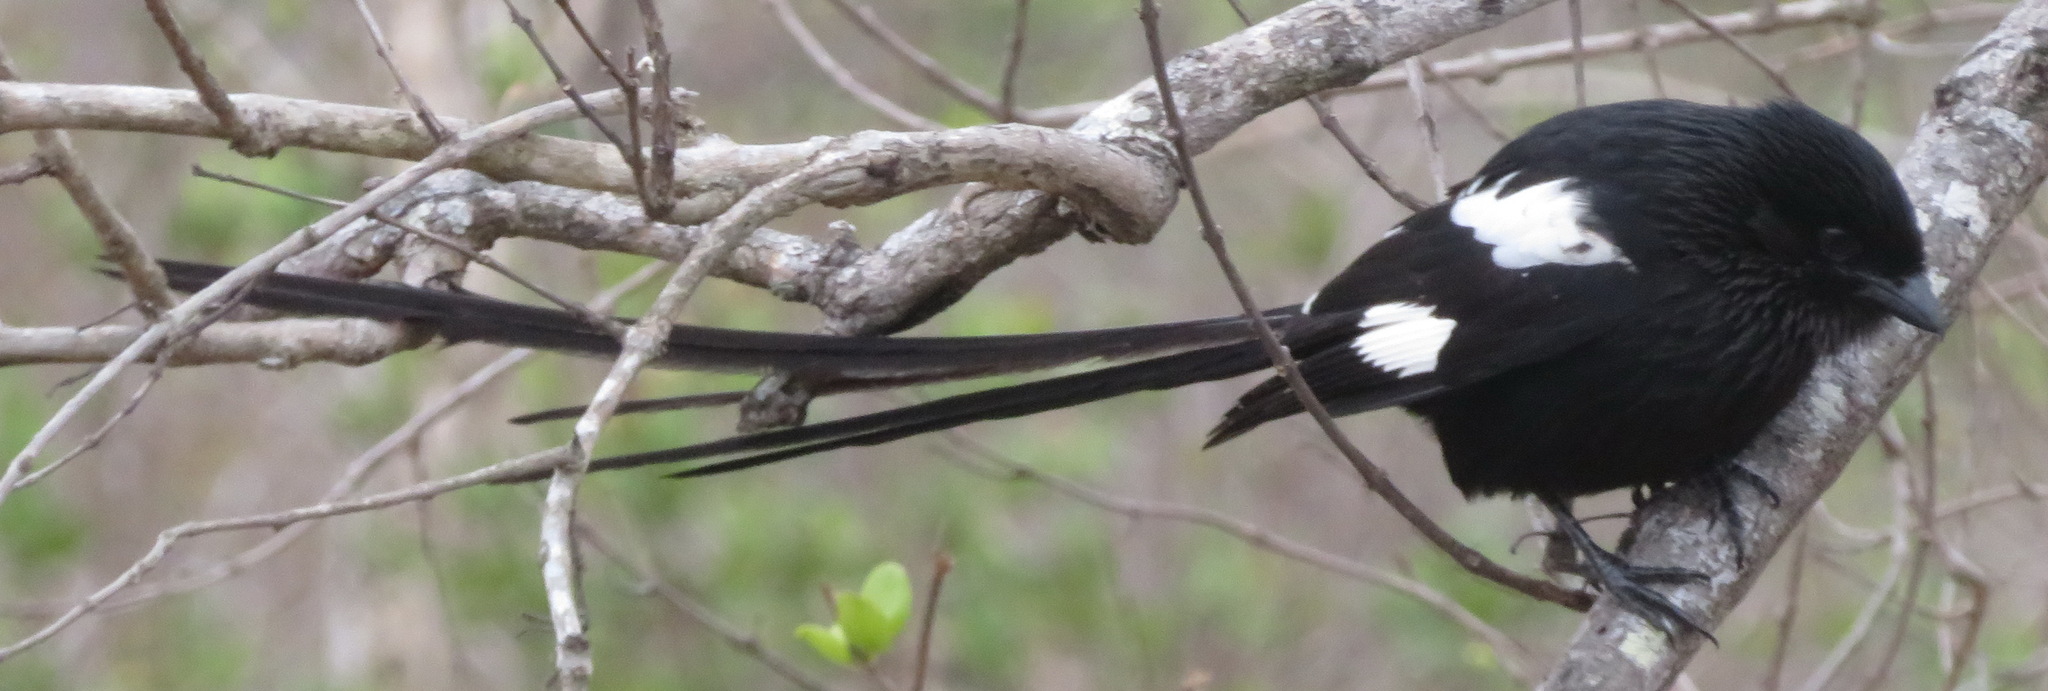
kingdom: Animalia
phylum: Chordata
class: Aves
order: Passeriformes
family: Laniidae
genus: Urolestes
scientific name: Urolestes melanoleucus
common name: Magpie shrike
